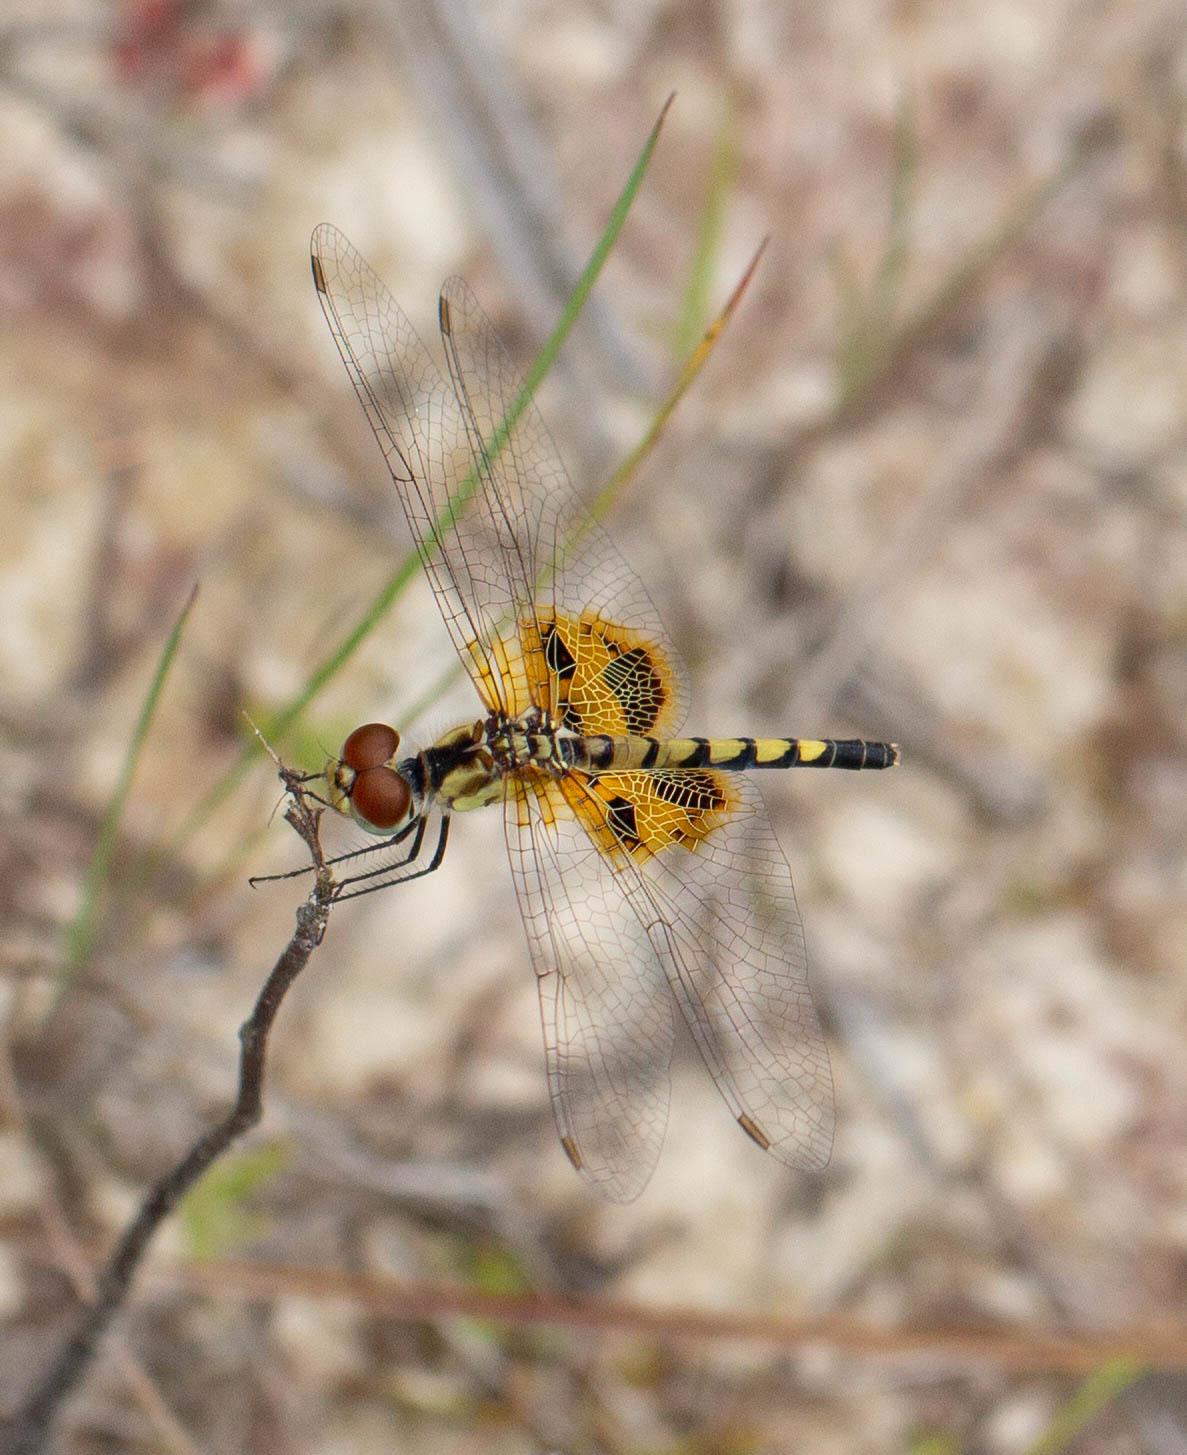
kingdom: Animalia
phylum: Arthropoda
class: Insecta
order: Odonata
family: Libellulidae
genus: Celithemis
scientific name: Celithemis amanda
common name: Amanda's pennant
